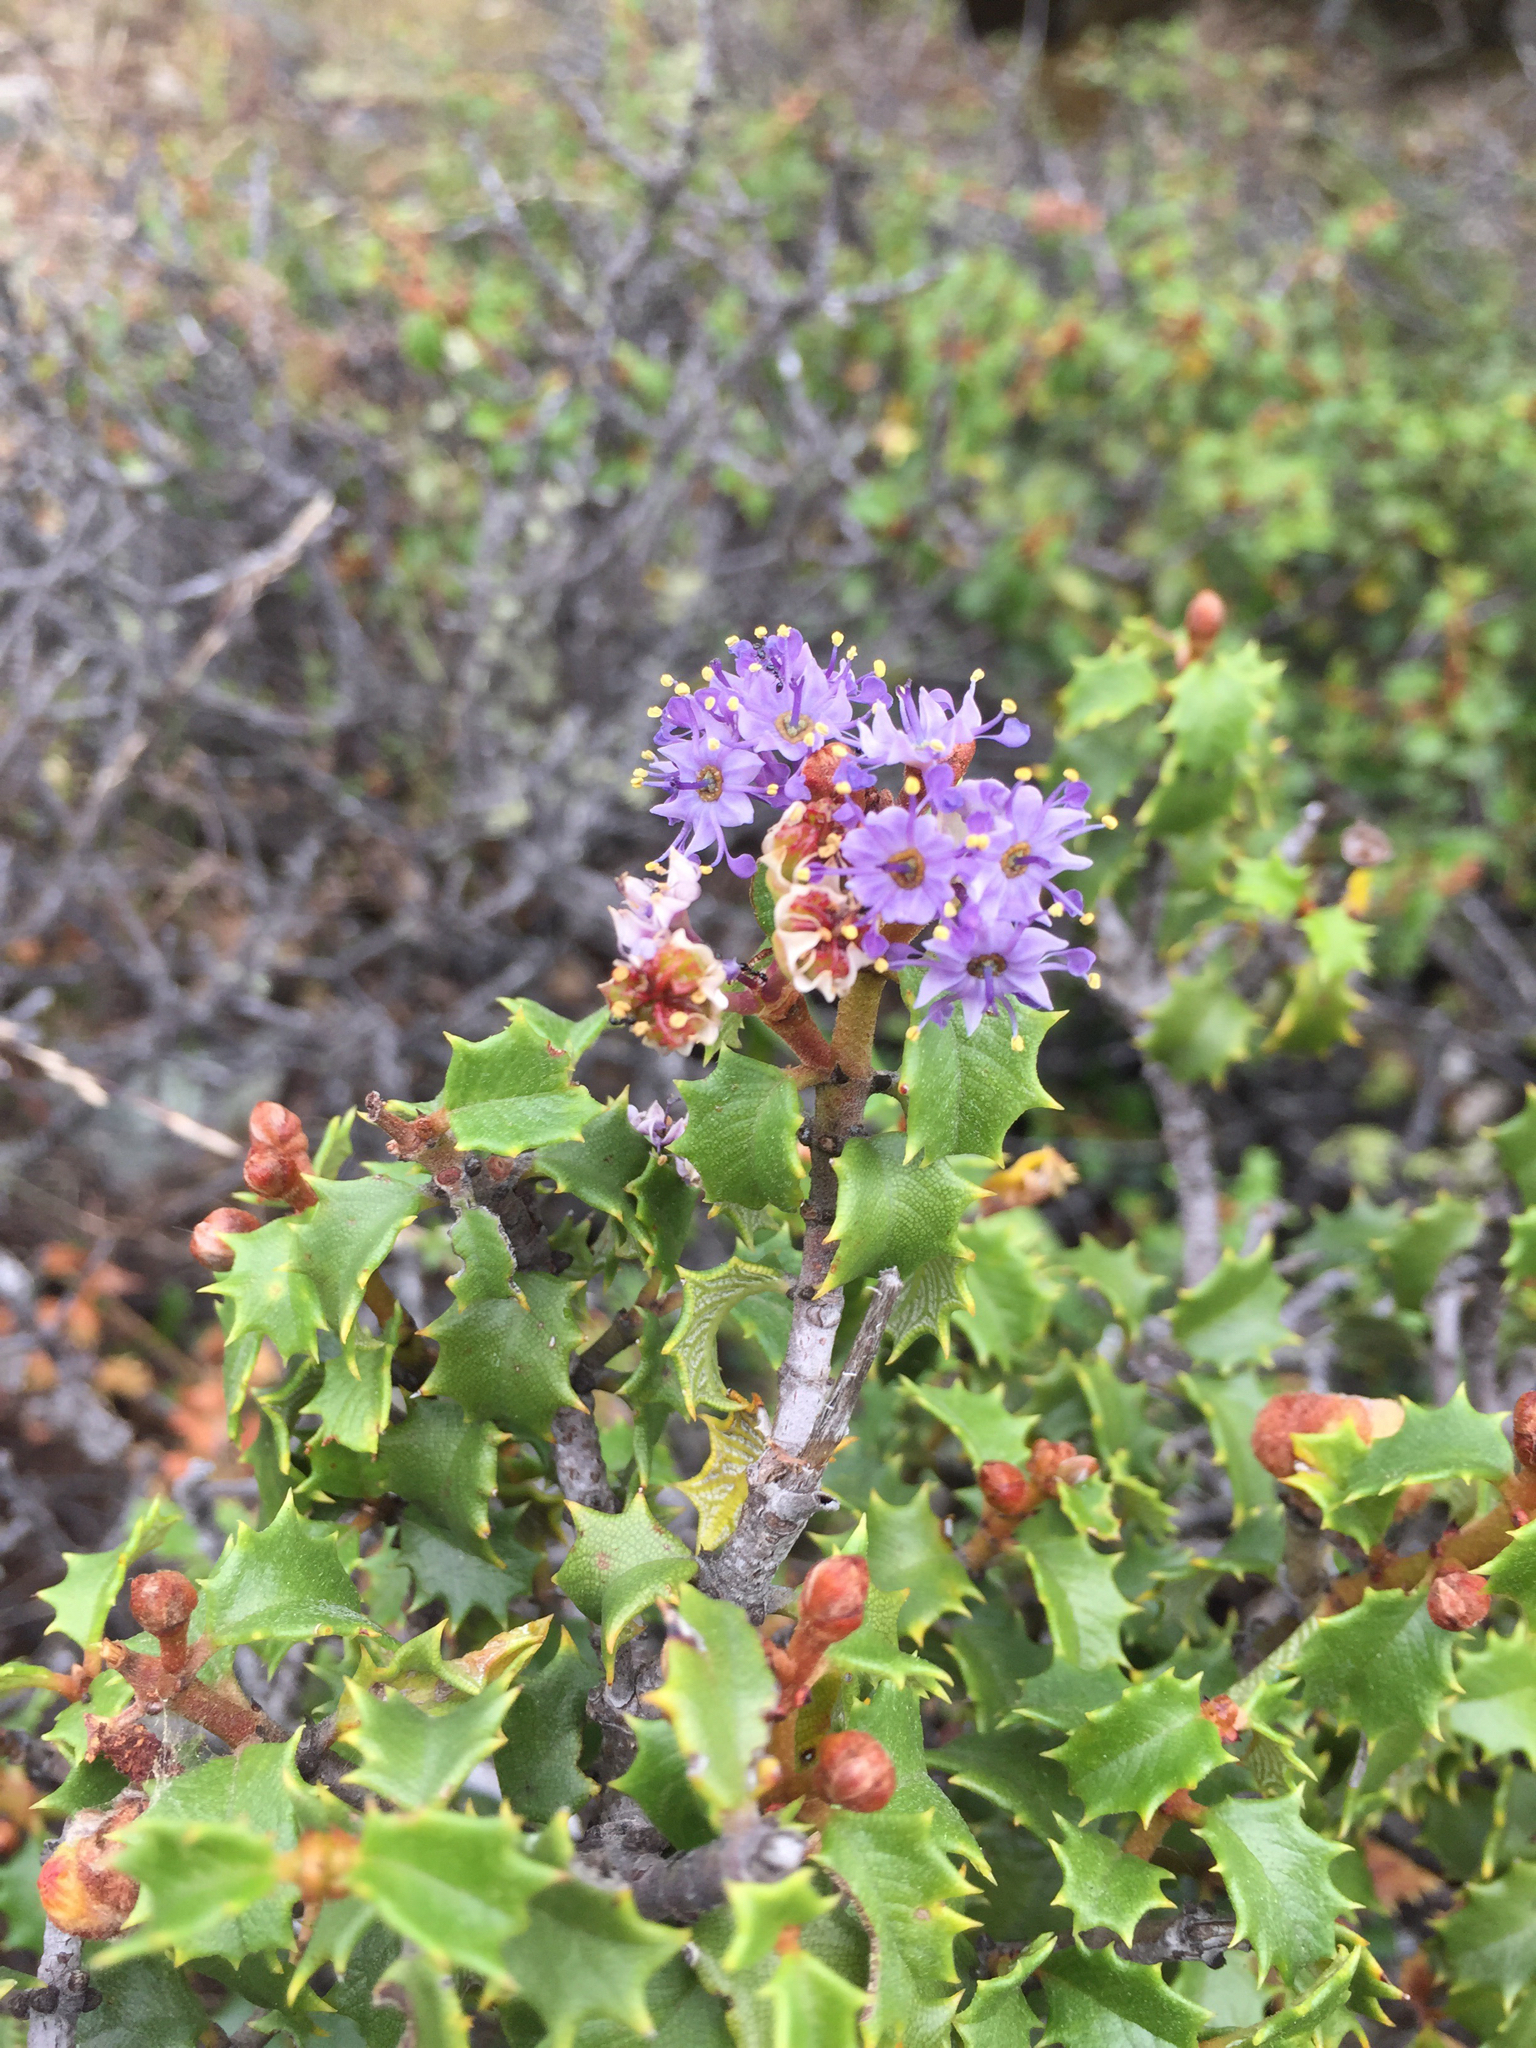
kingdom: Plantae
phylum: Tracheophyta
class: Magnoliopsida
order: Rosales
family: Rhamnaceae
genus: Ceanothus
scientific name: Ceanothus jepsonii
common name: Muskbrush
